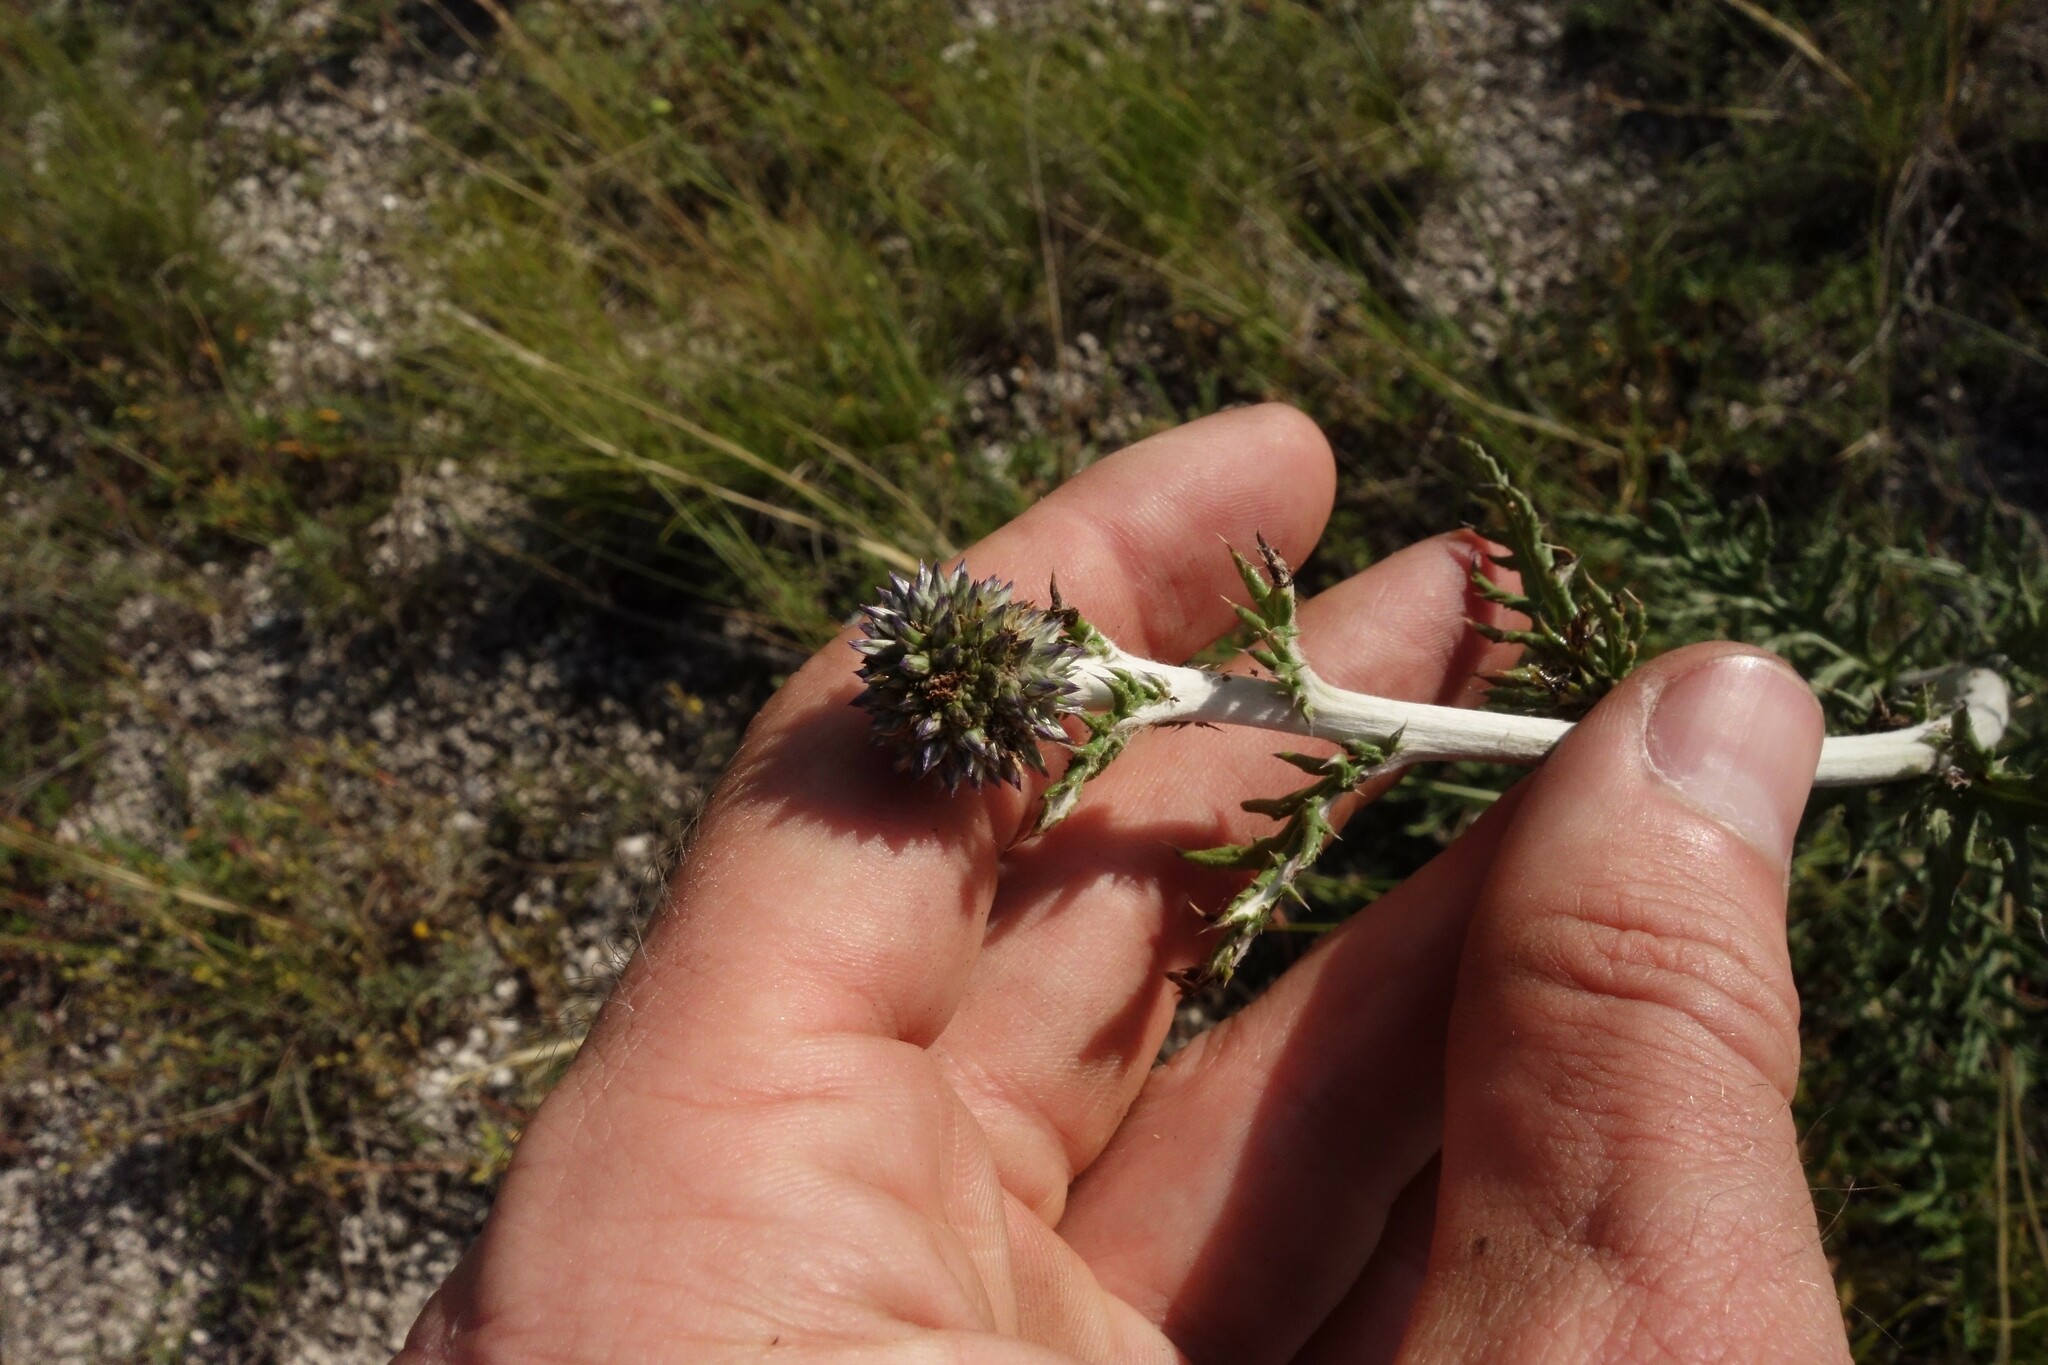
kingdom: Plantae
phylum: Tracheophyta
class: Magnoliopsida
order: Asterales
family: Asteraceae
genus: Echinops
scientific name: Echinops ritro
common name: Globe thistle
